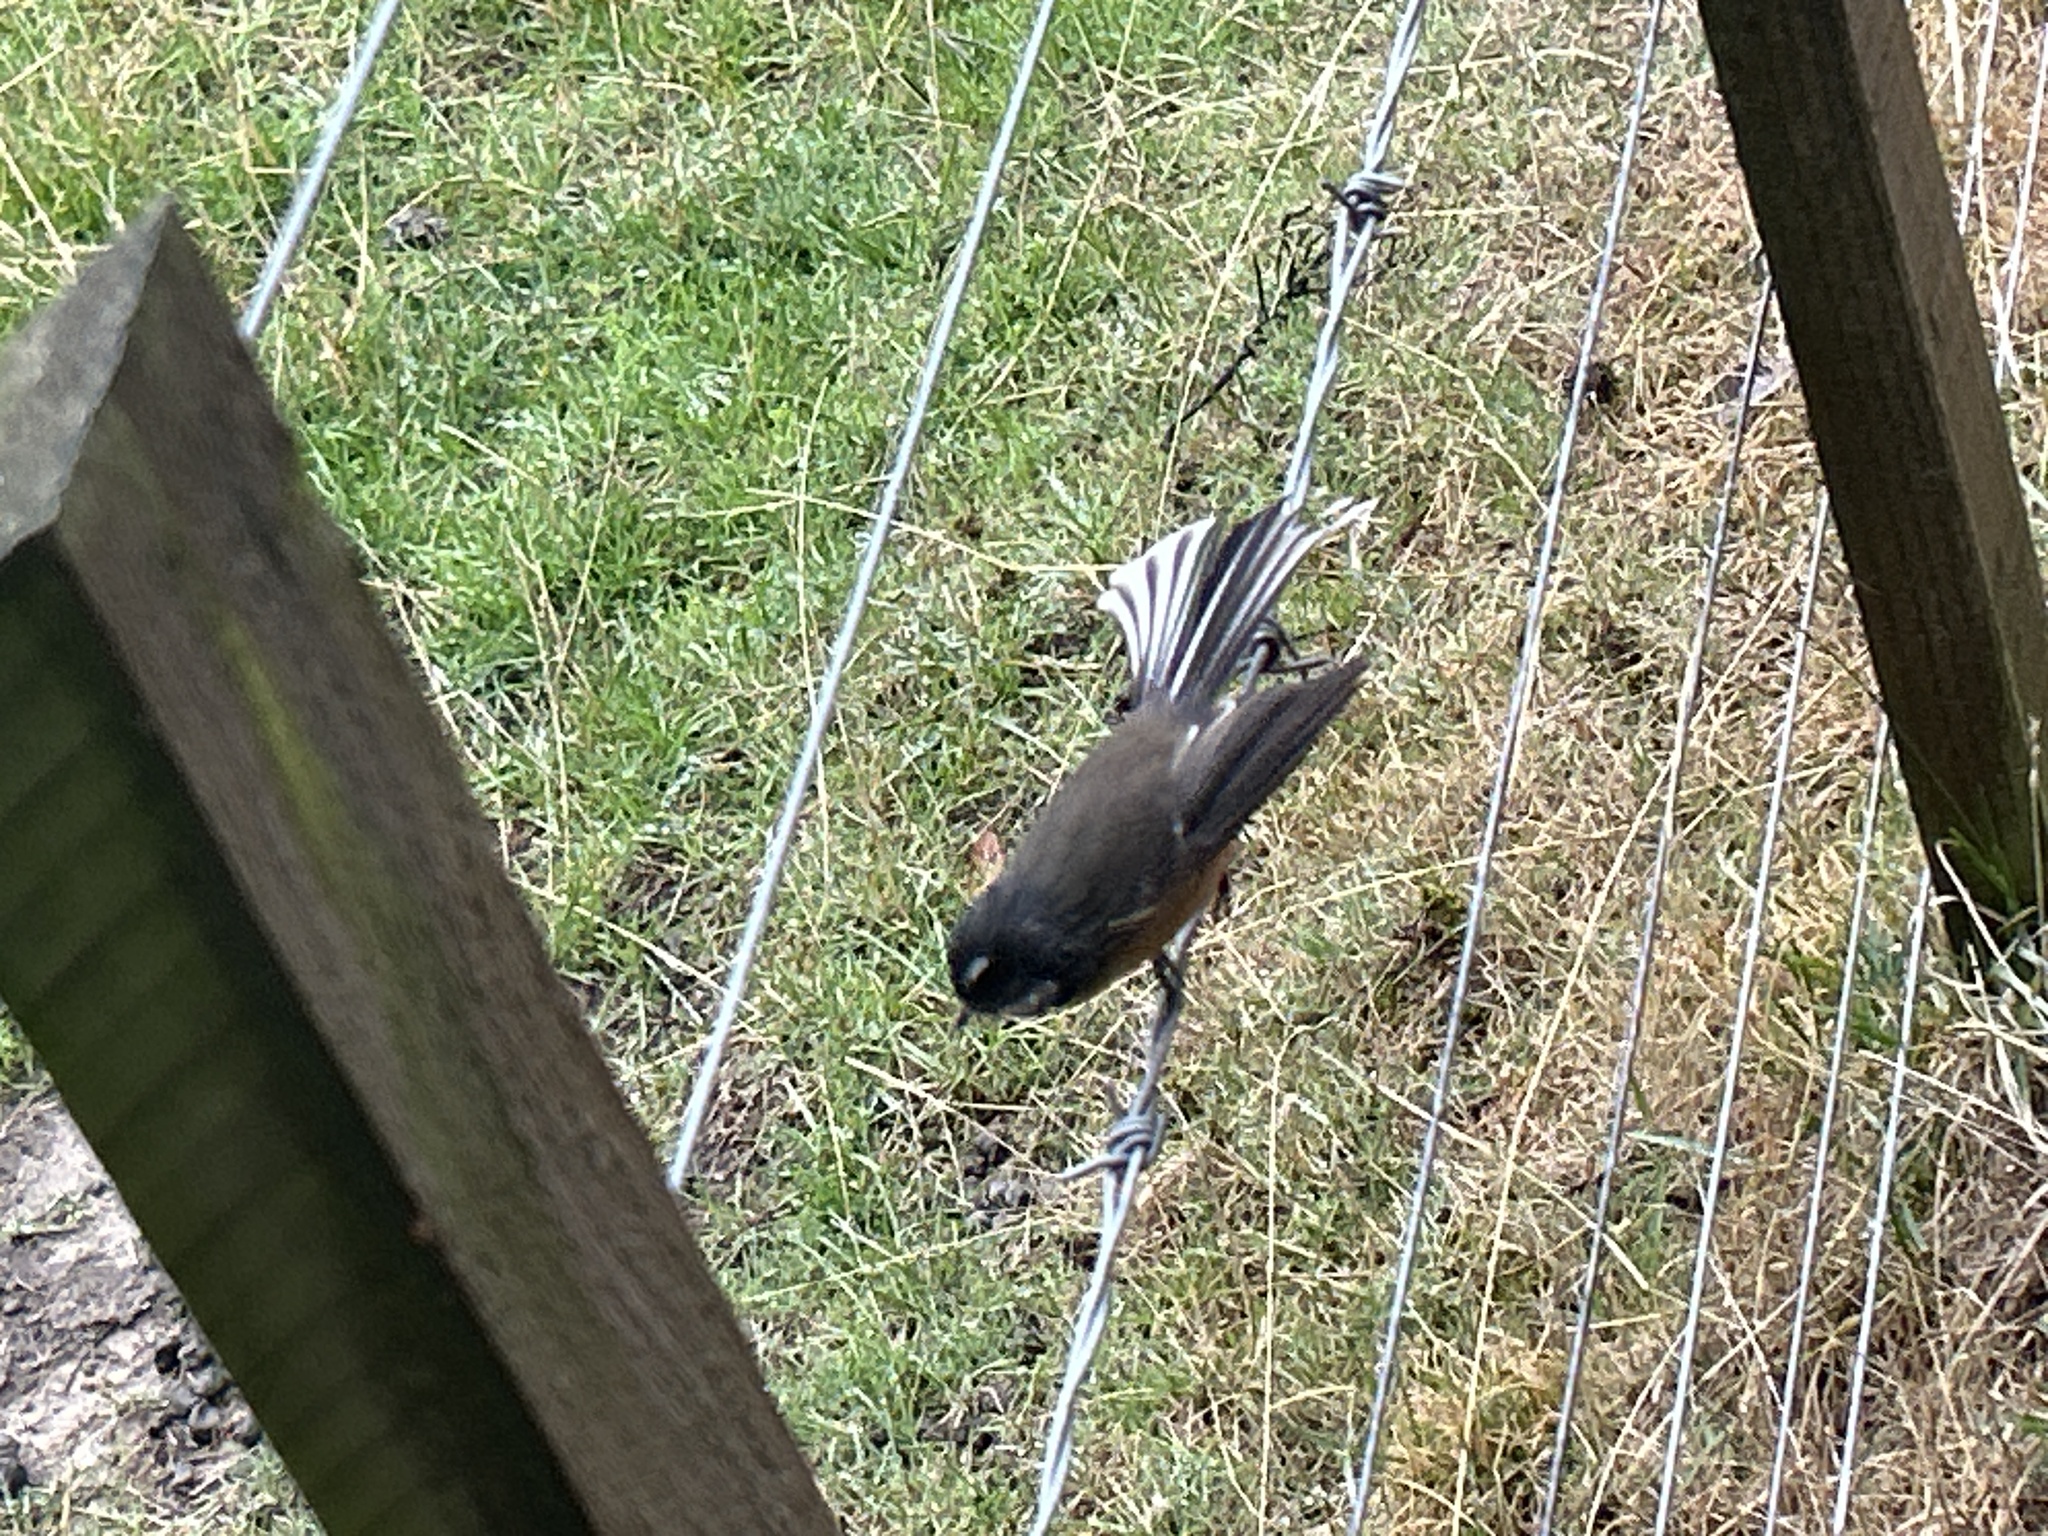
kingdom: Animalia
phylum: Chordata
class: Aves
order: Passeriformes
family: Rhipiduridae
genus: Rhipidura
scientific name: Rhipidura fuliginosa
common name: New zealand fantail
